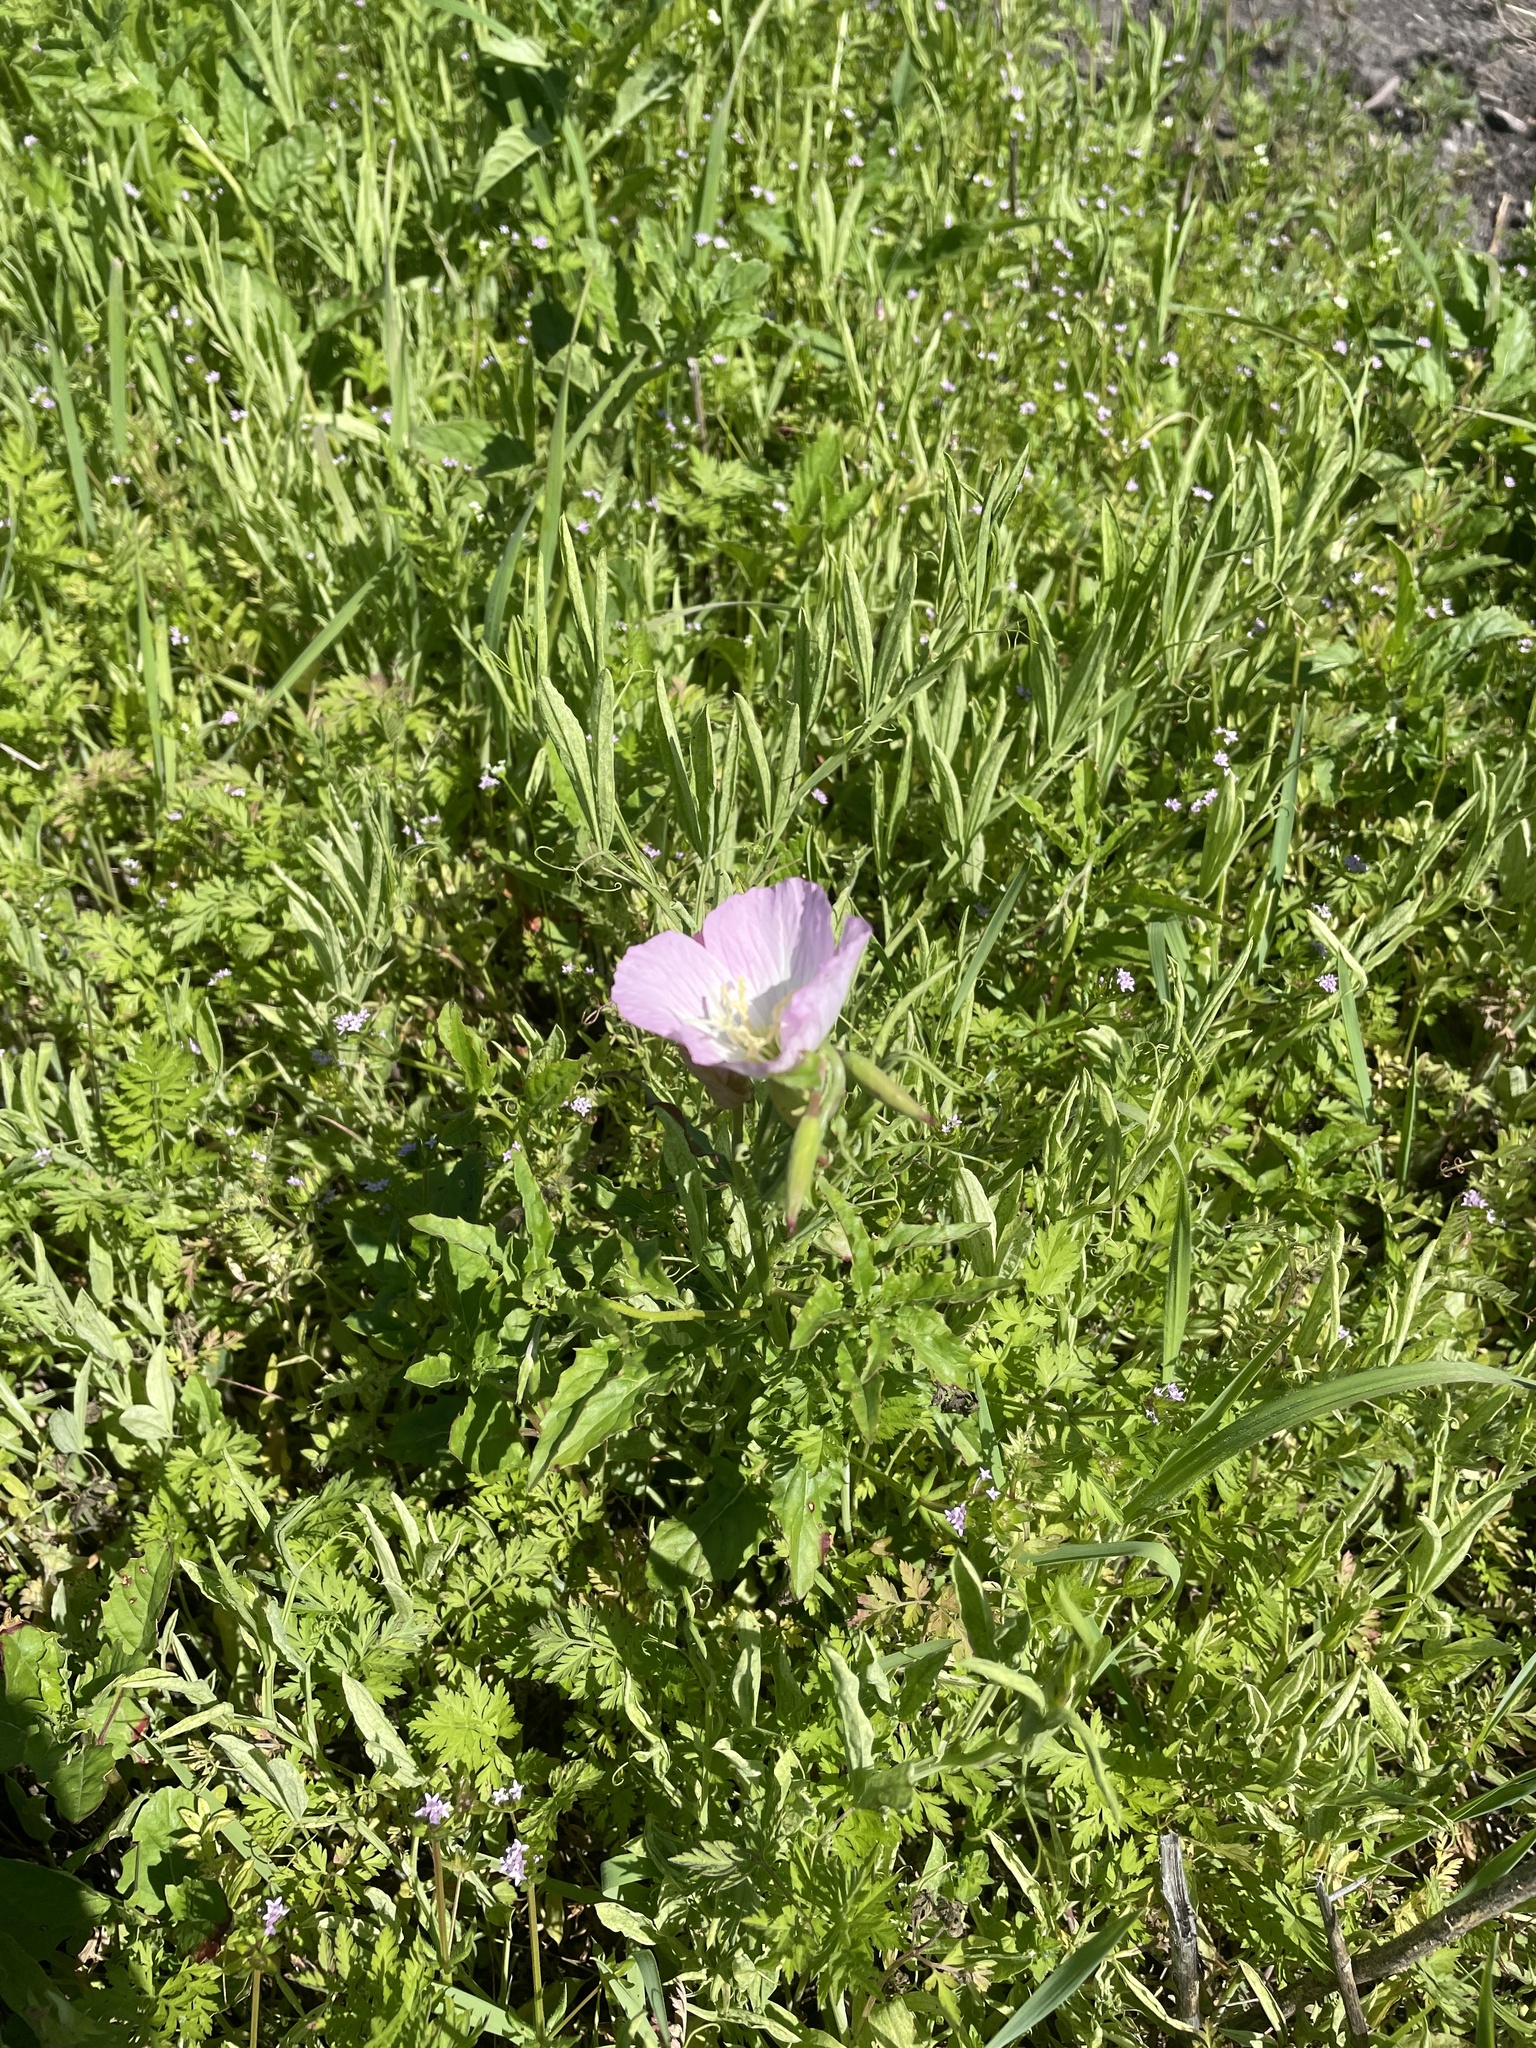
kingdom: Plantae
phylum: Tracheophyta
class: Magnoliopsida
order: Myrtales
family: Onagraceae
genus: Oenothera
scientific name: Oenothera speciosa
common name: White evening-primrose
